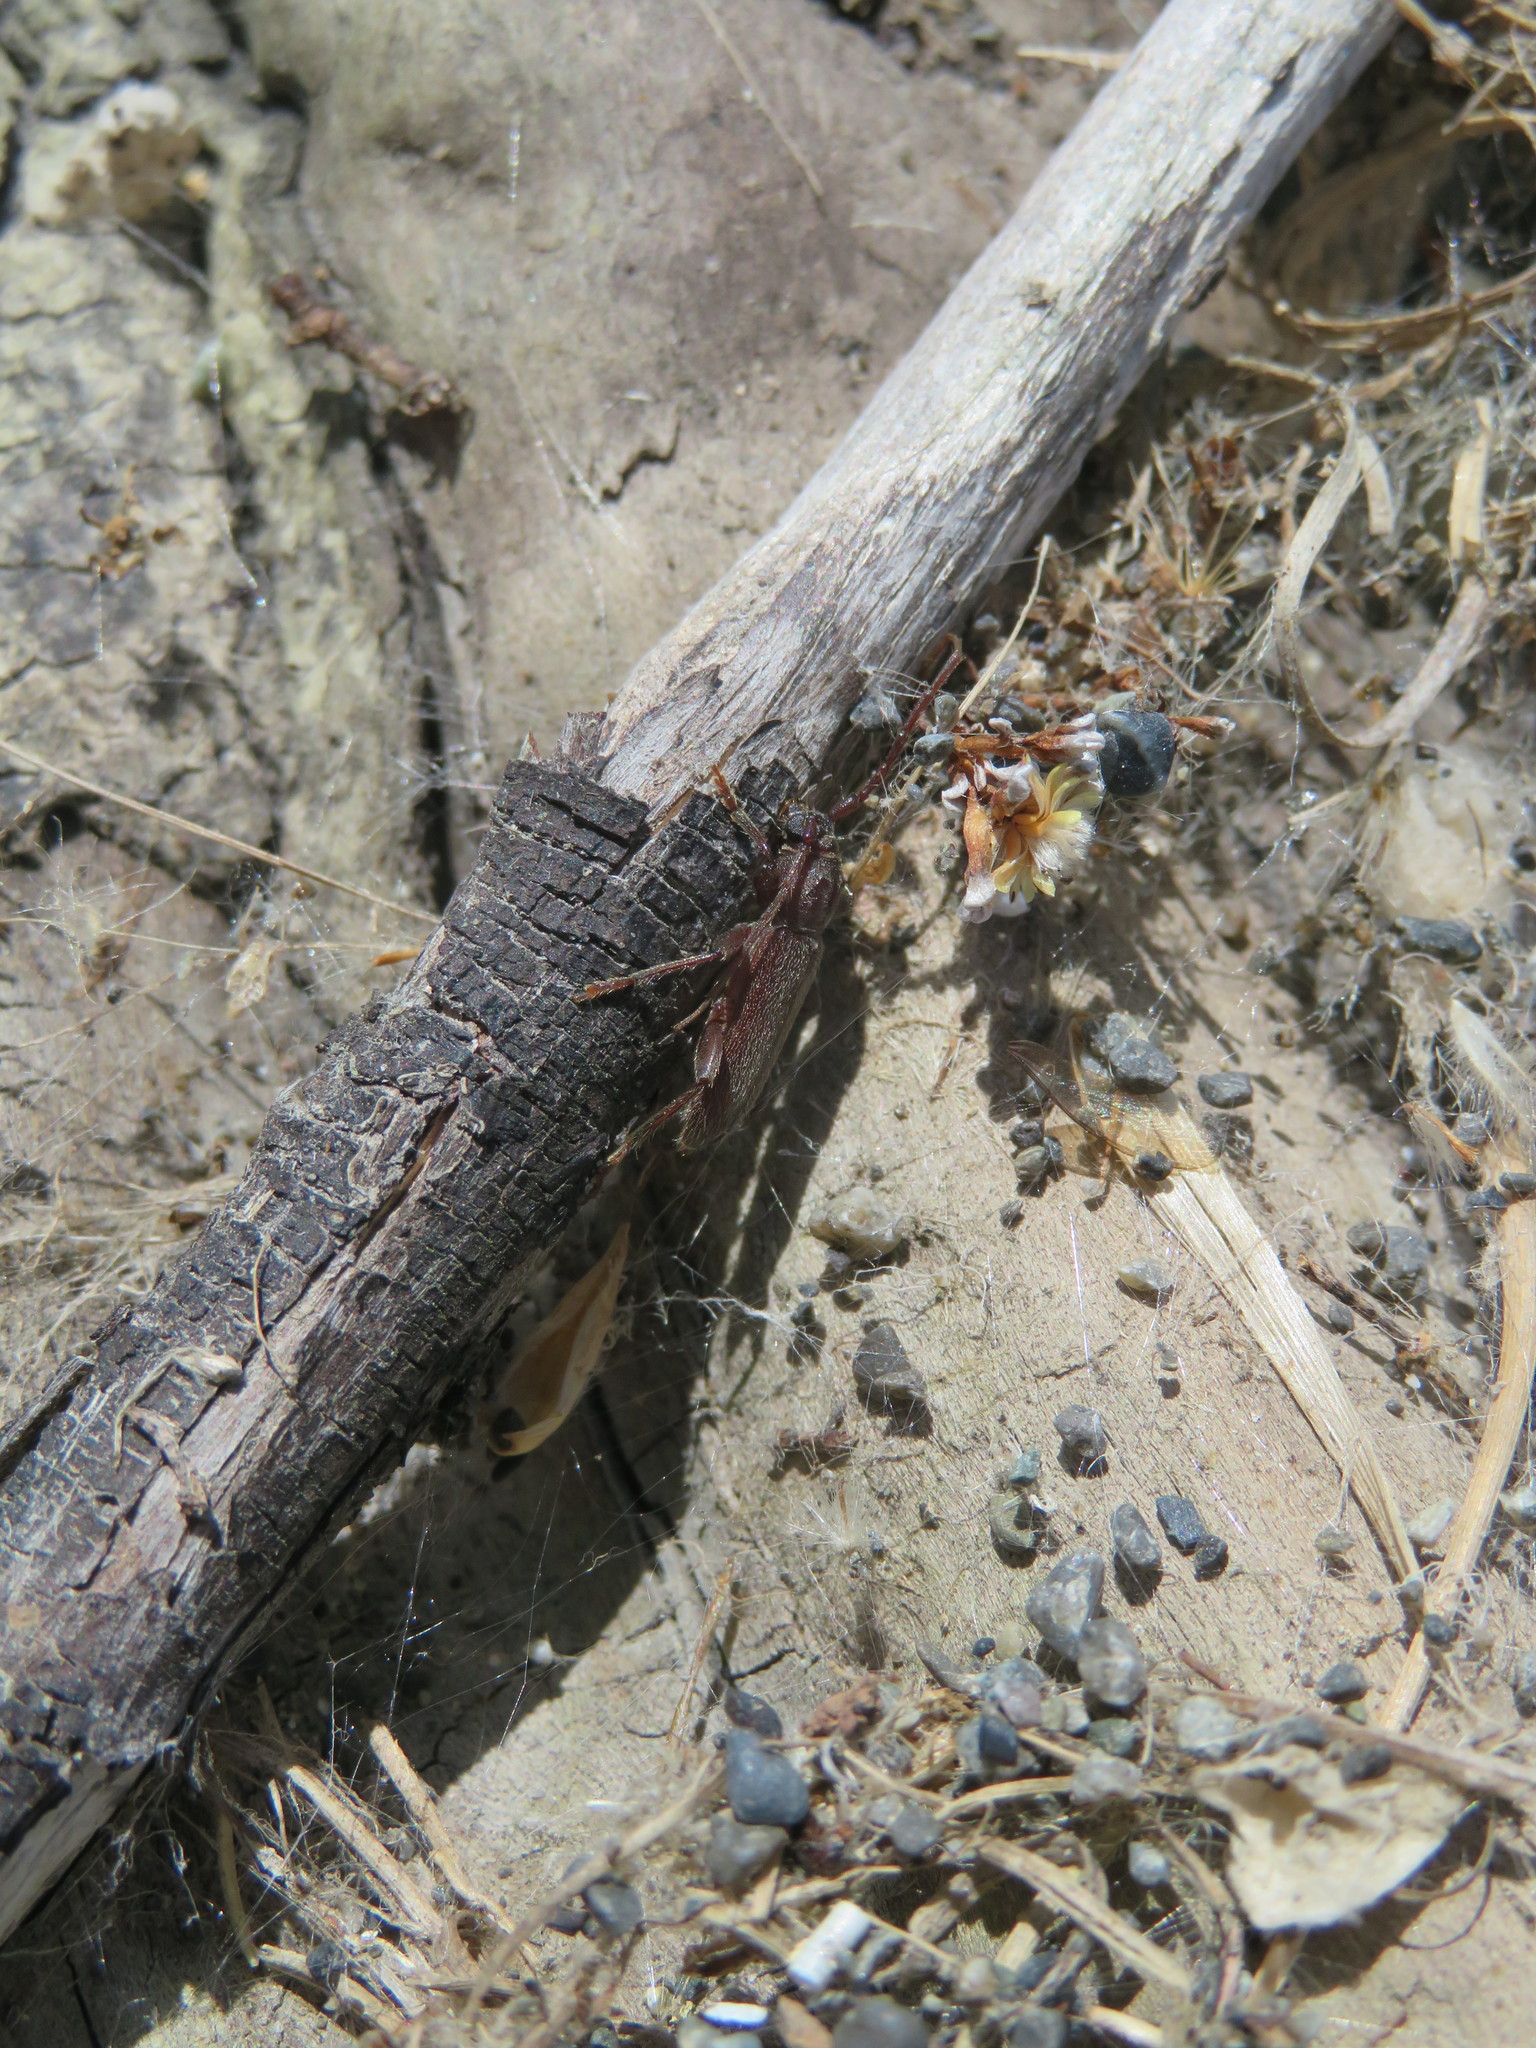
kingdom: Animalia
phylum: Arthropoda
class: Insecta
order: Coleoptera
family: Cerambycidae
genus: Liogramma
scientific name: Liogramma zelandica
